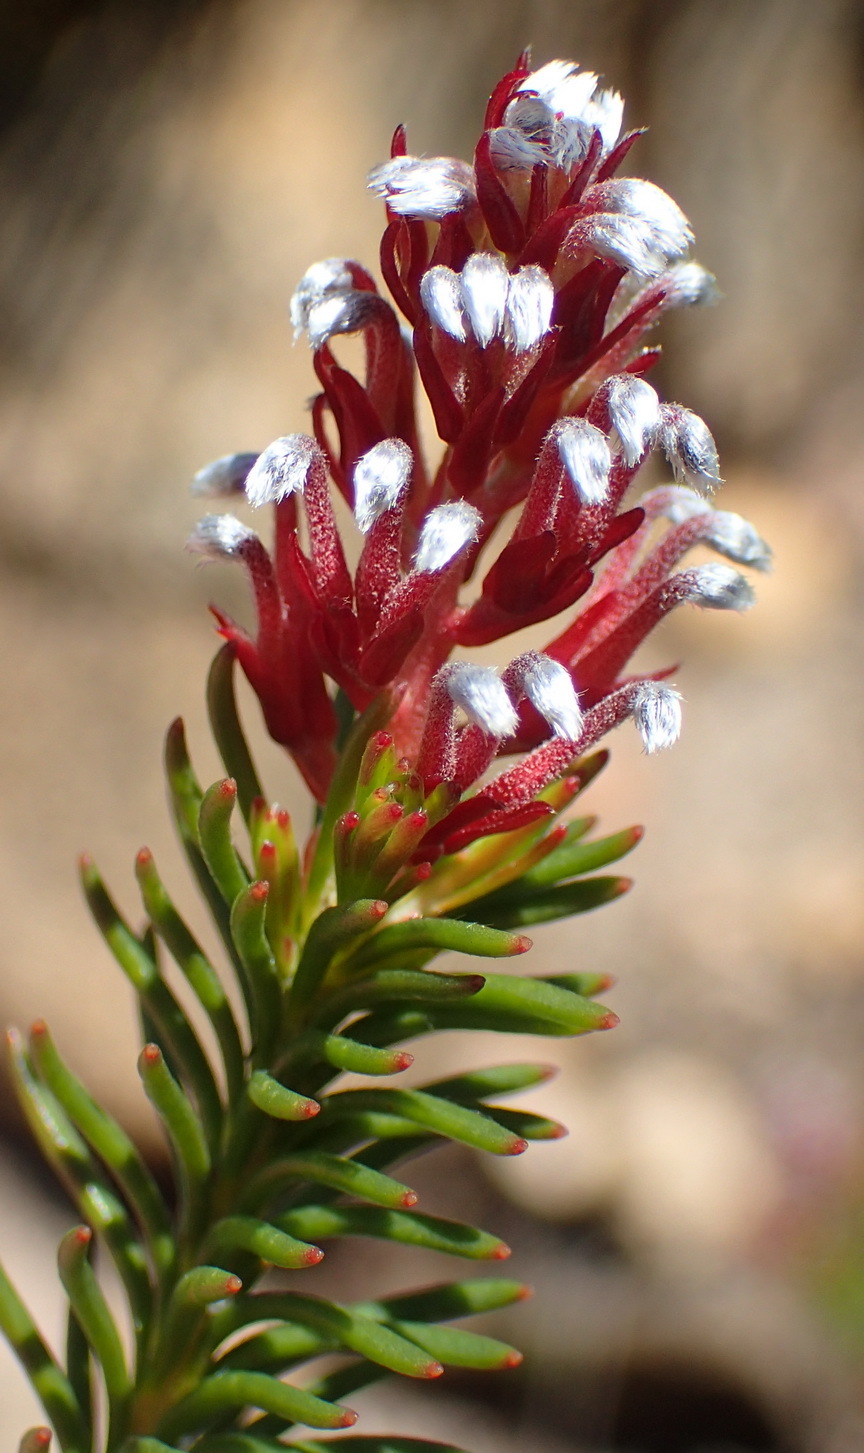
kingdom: Plantae
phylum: Tracheophyta
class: Magnoliopsida
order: Proteales
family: Proteaceae
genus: Spatalla
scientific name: Spatalla confusa
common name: Long-tube spoon
